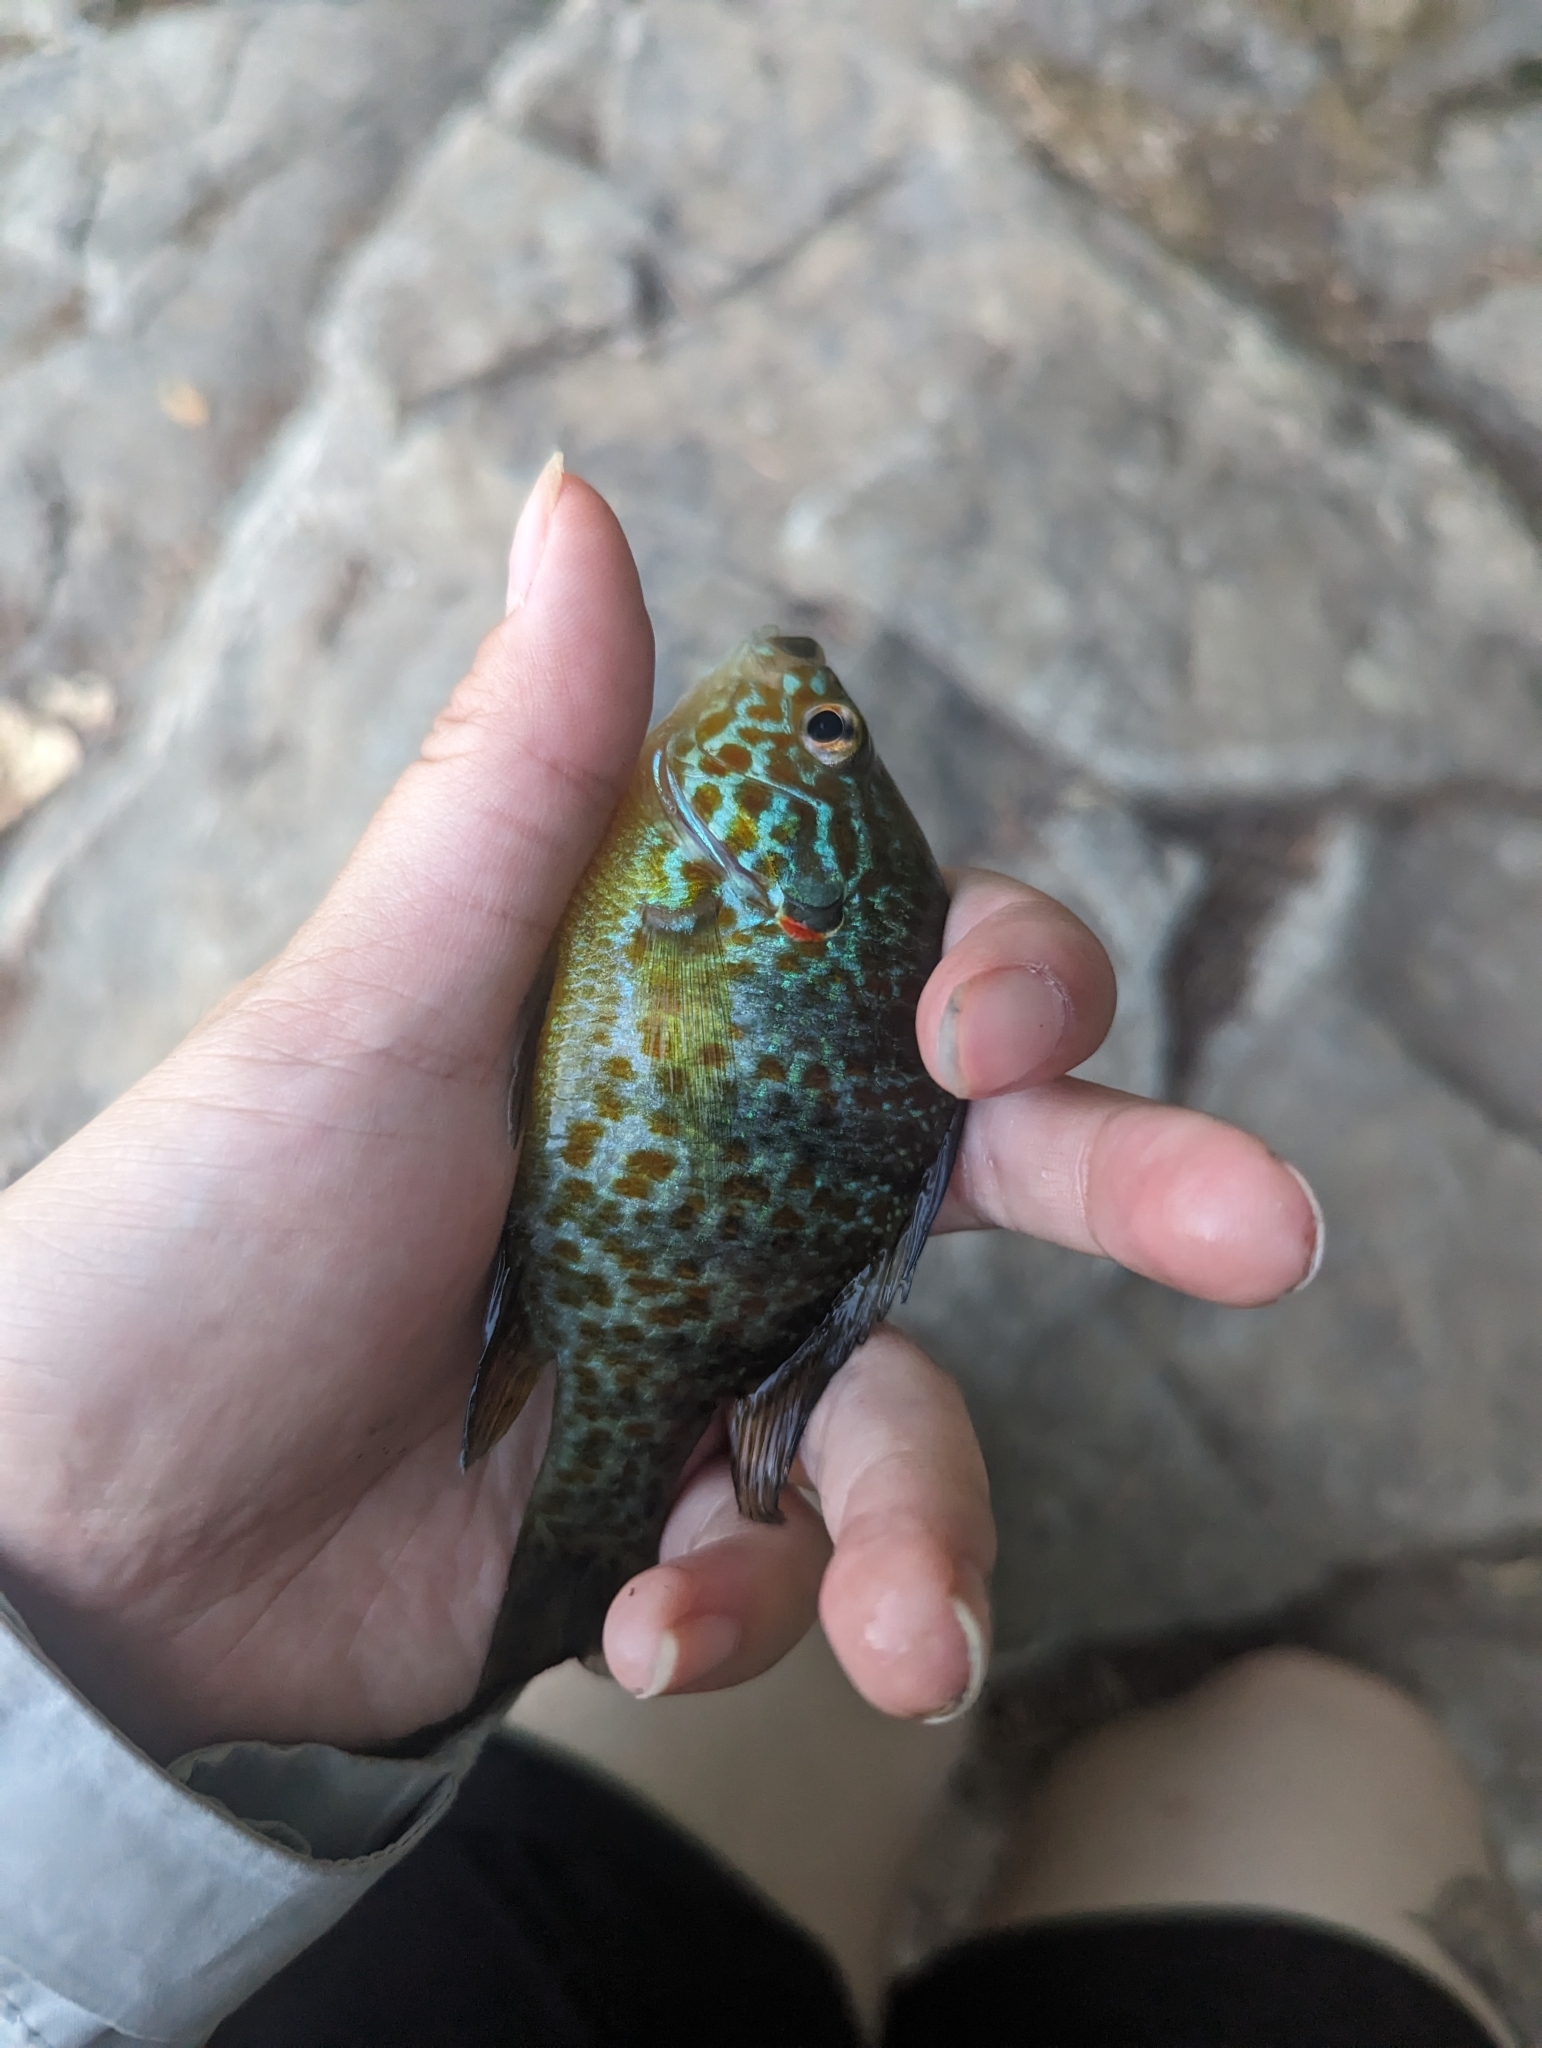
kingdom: Animalia
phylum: Chordata
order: Perciformes
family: Centrarchidae
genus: Lepomis
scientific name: Lepomis gibbosus
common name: Pumpkinseed
